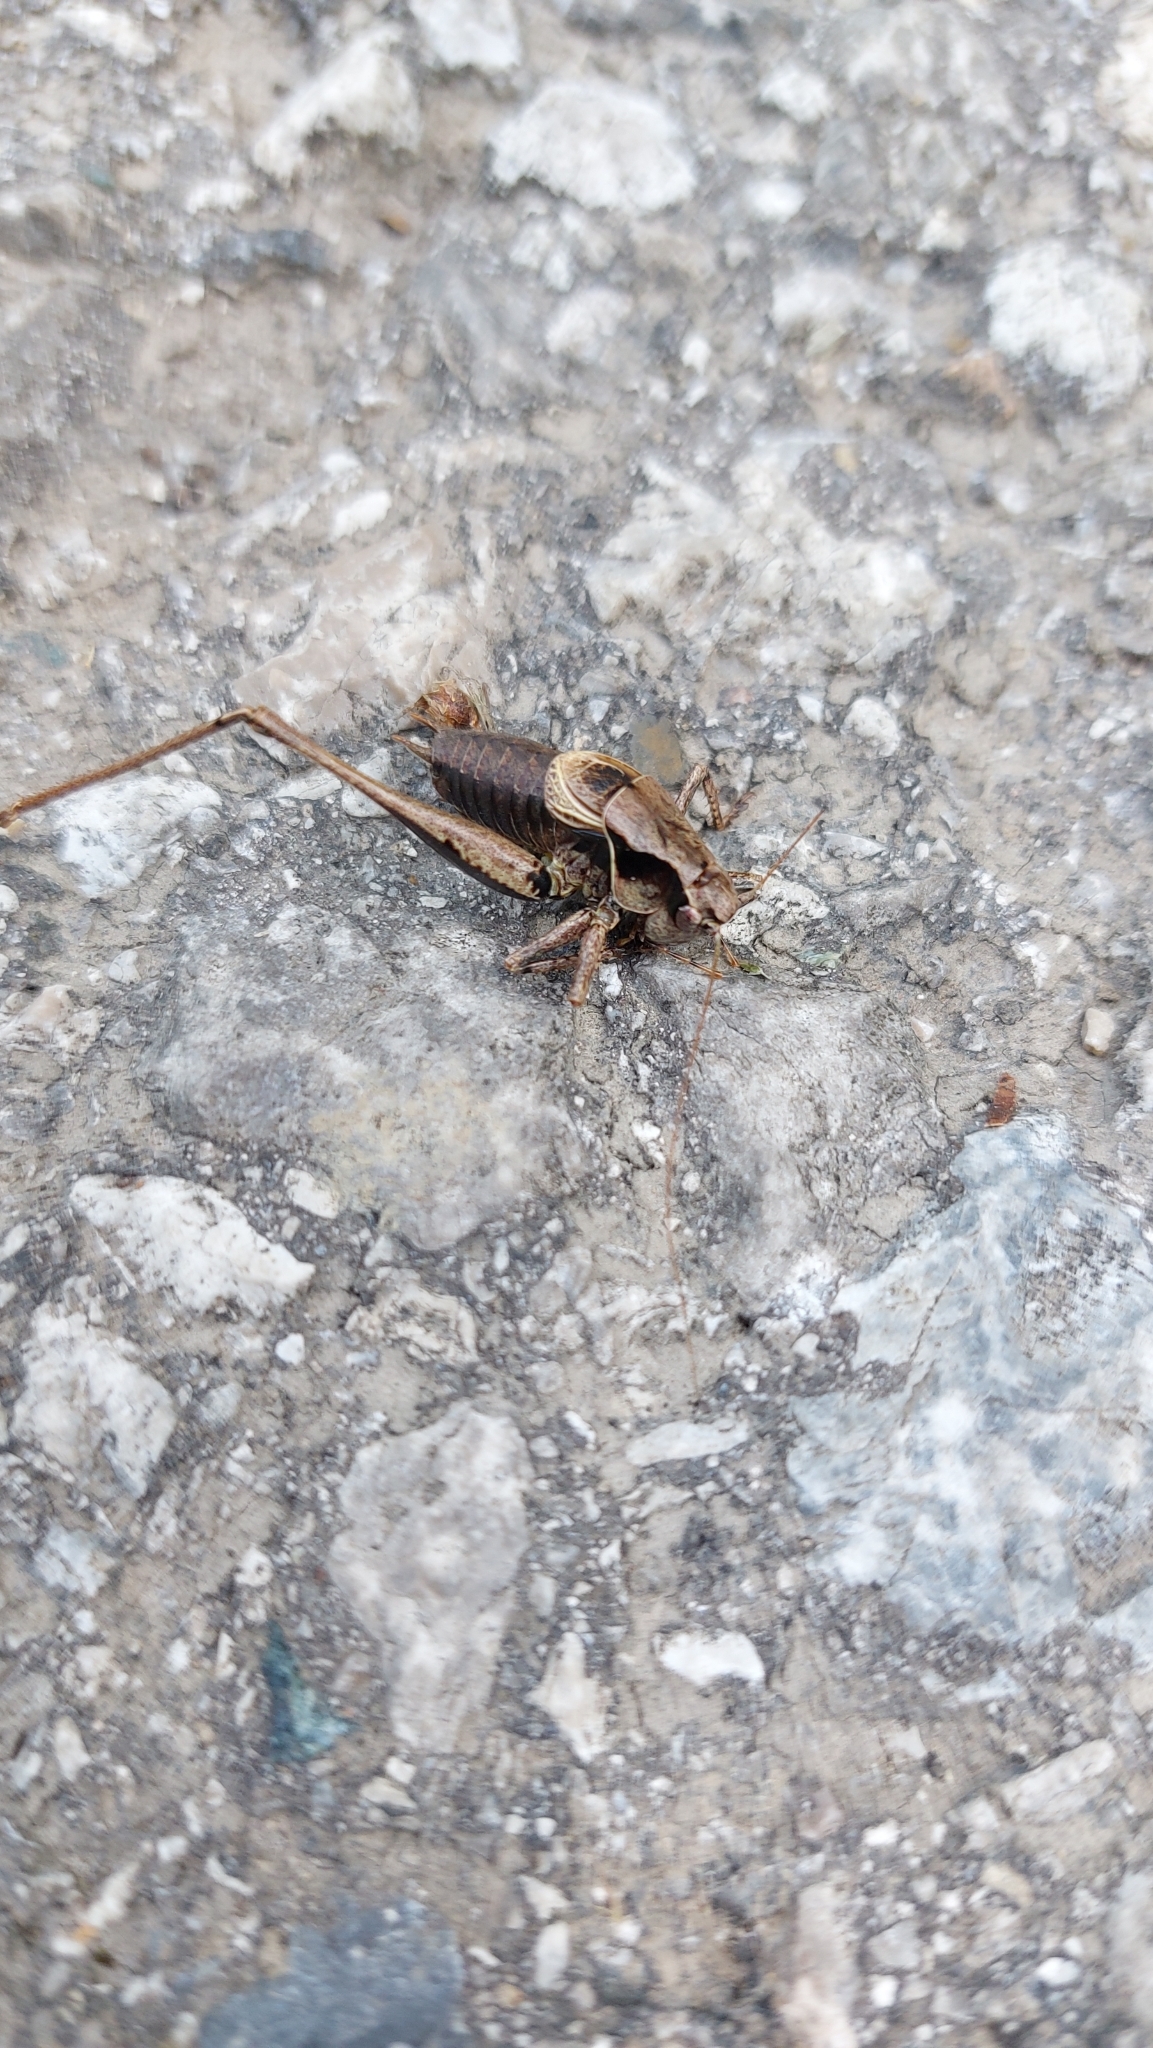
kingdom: Animalia
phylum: Arthropoda
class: Insecta
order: Orthoptera
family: Tettigoniidae
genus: Pholidoptera
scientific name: Pholidoptera griseoaptera
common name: Dark bush-cricket
